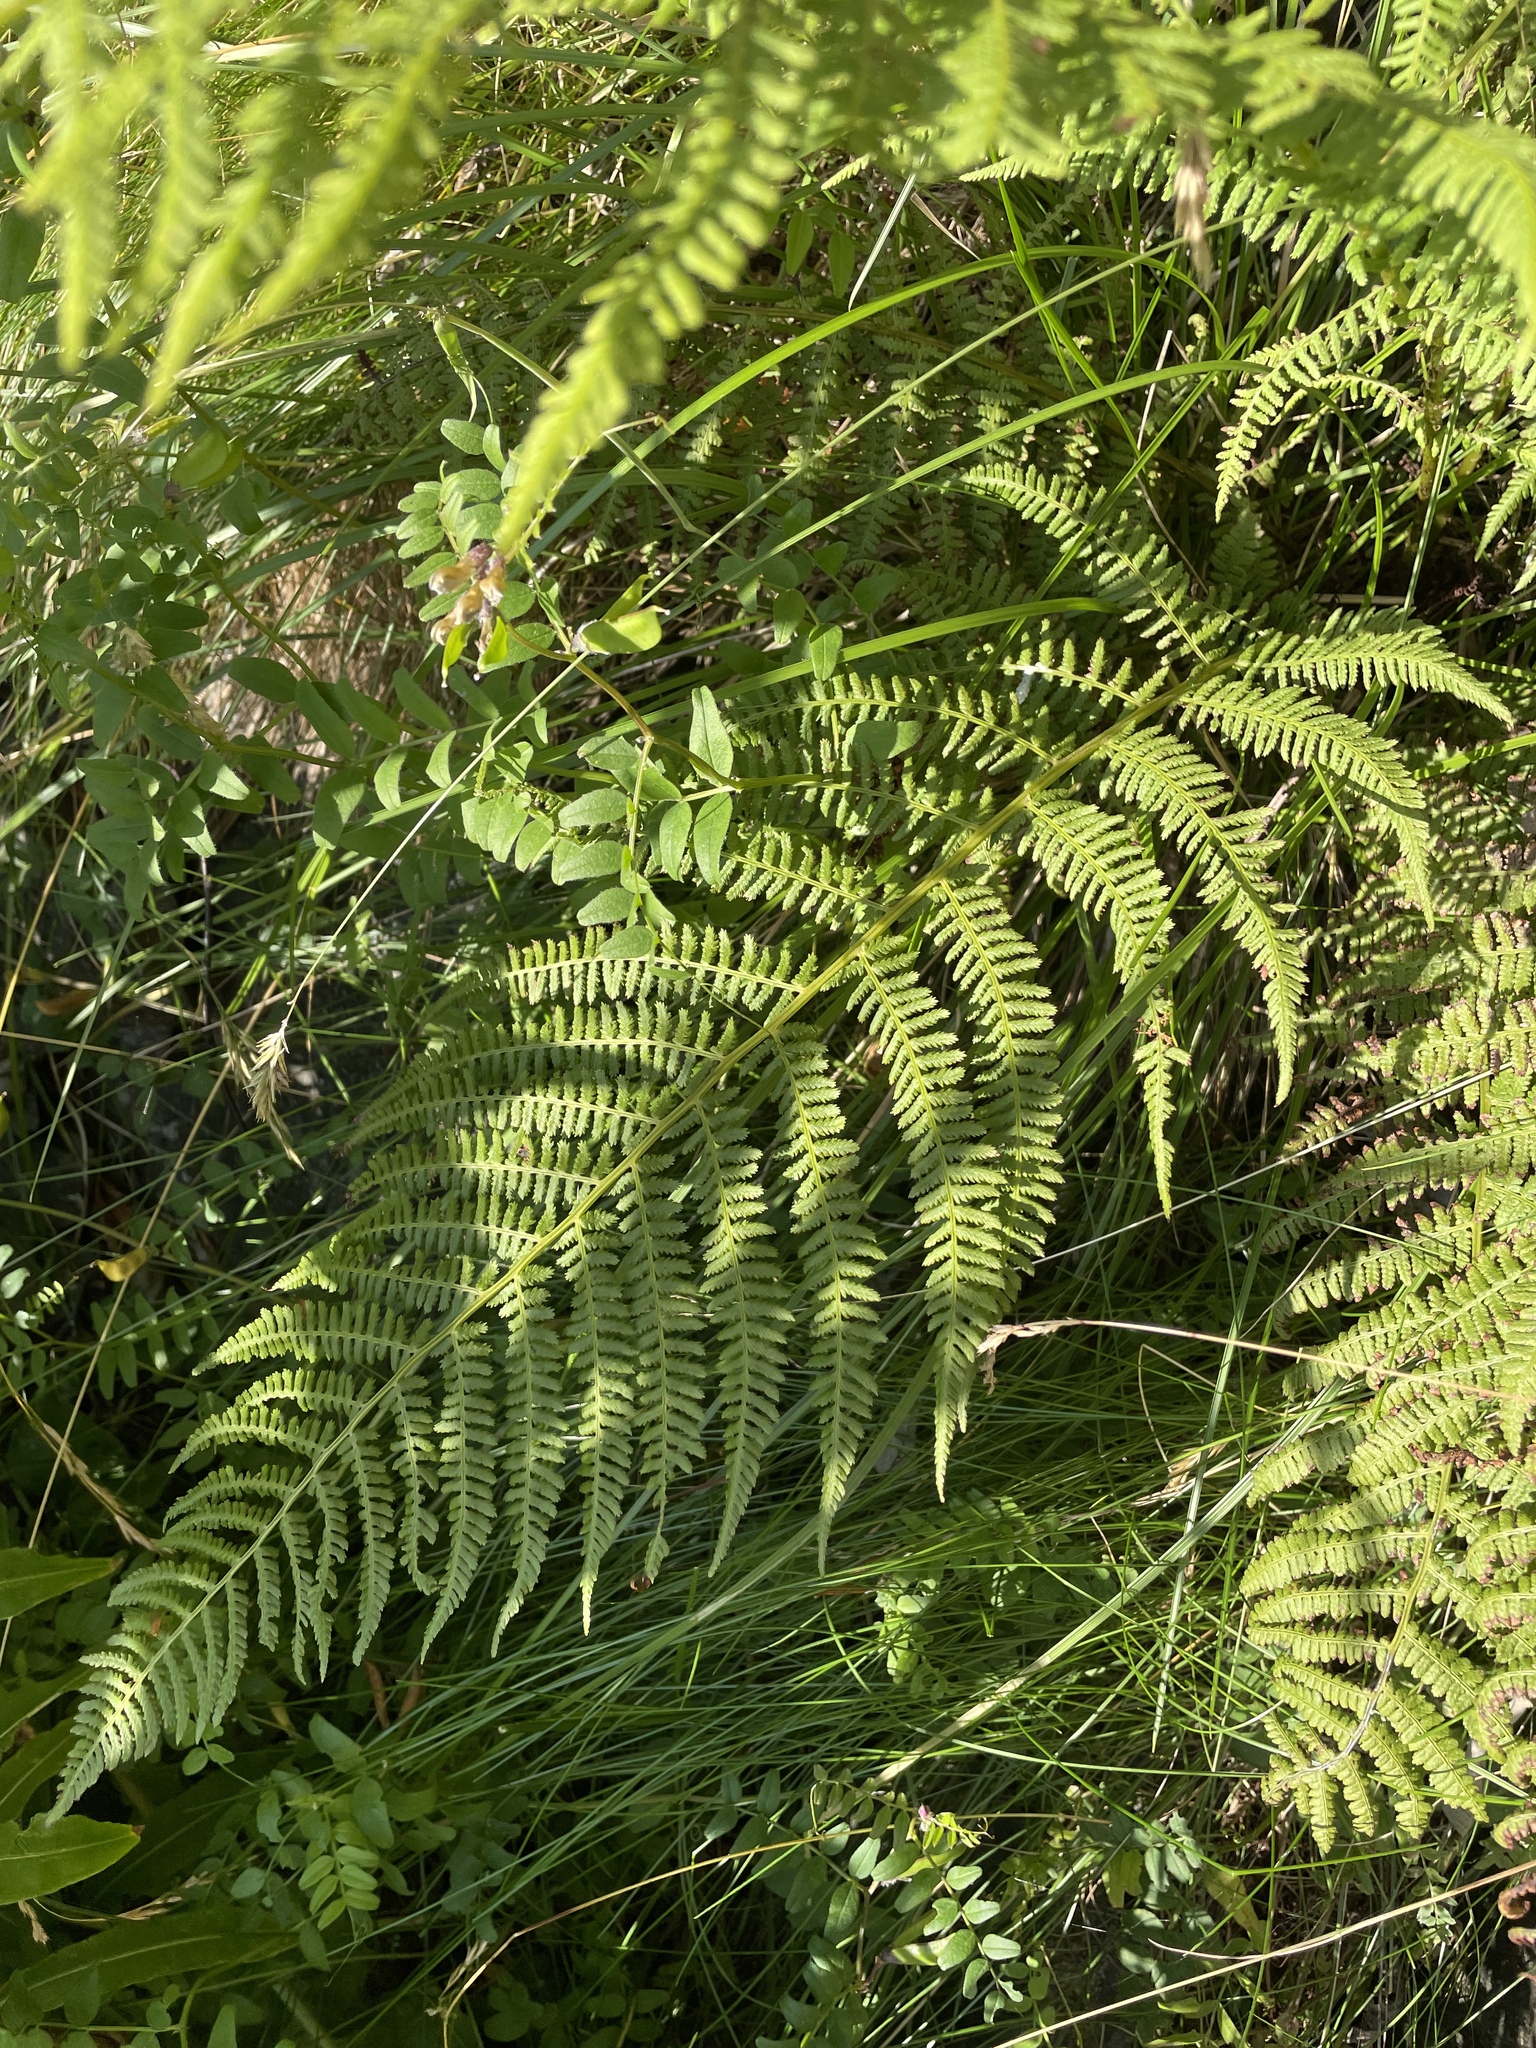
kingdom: Plantae
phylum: Tracheophyta
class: Polypodiopsida
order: Polypodiales
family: Athyriaceae
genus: Athyrium
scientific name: Athyrium filix-femina
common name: Lady fern
